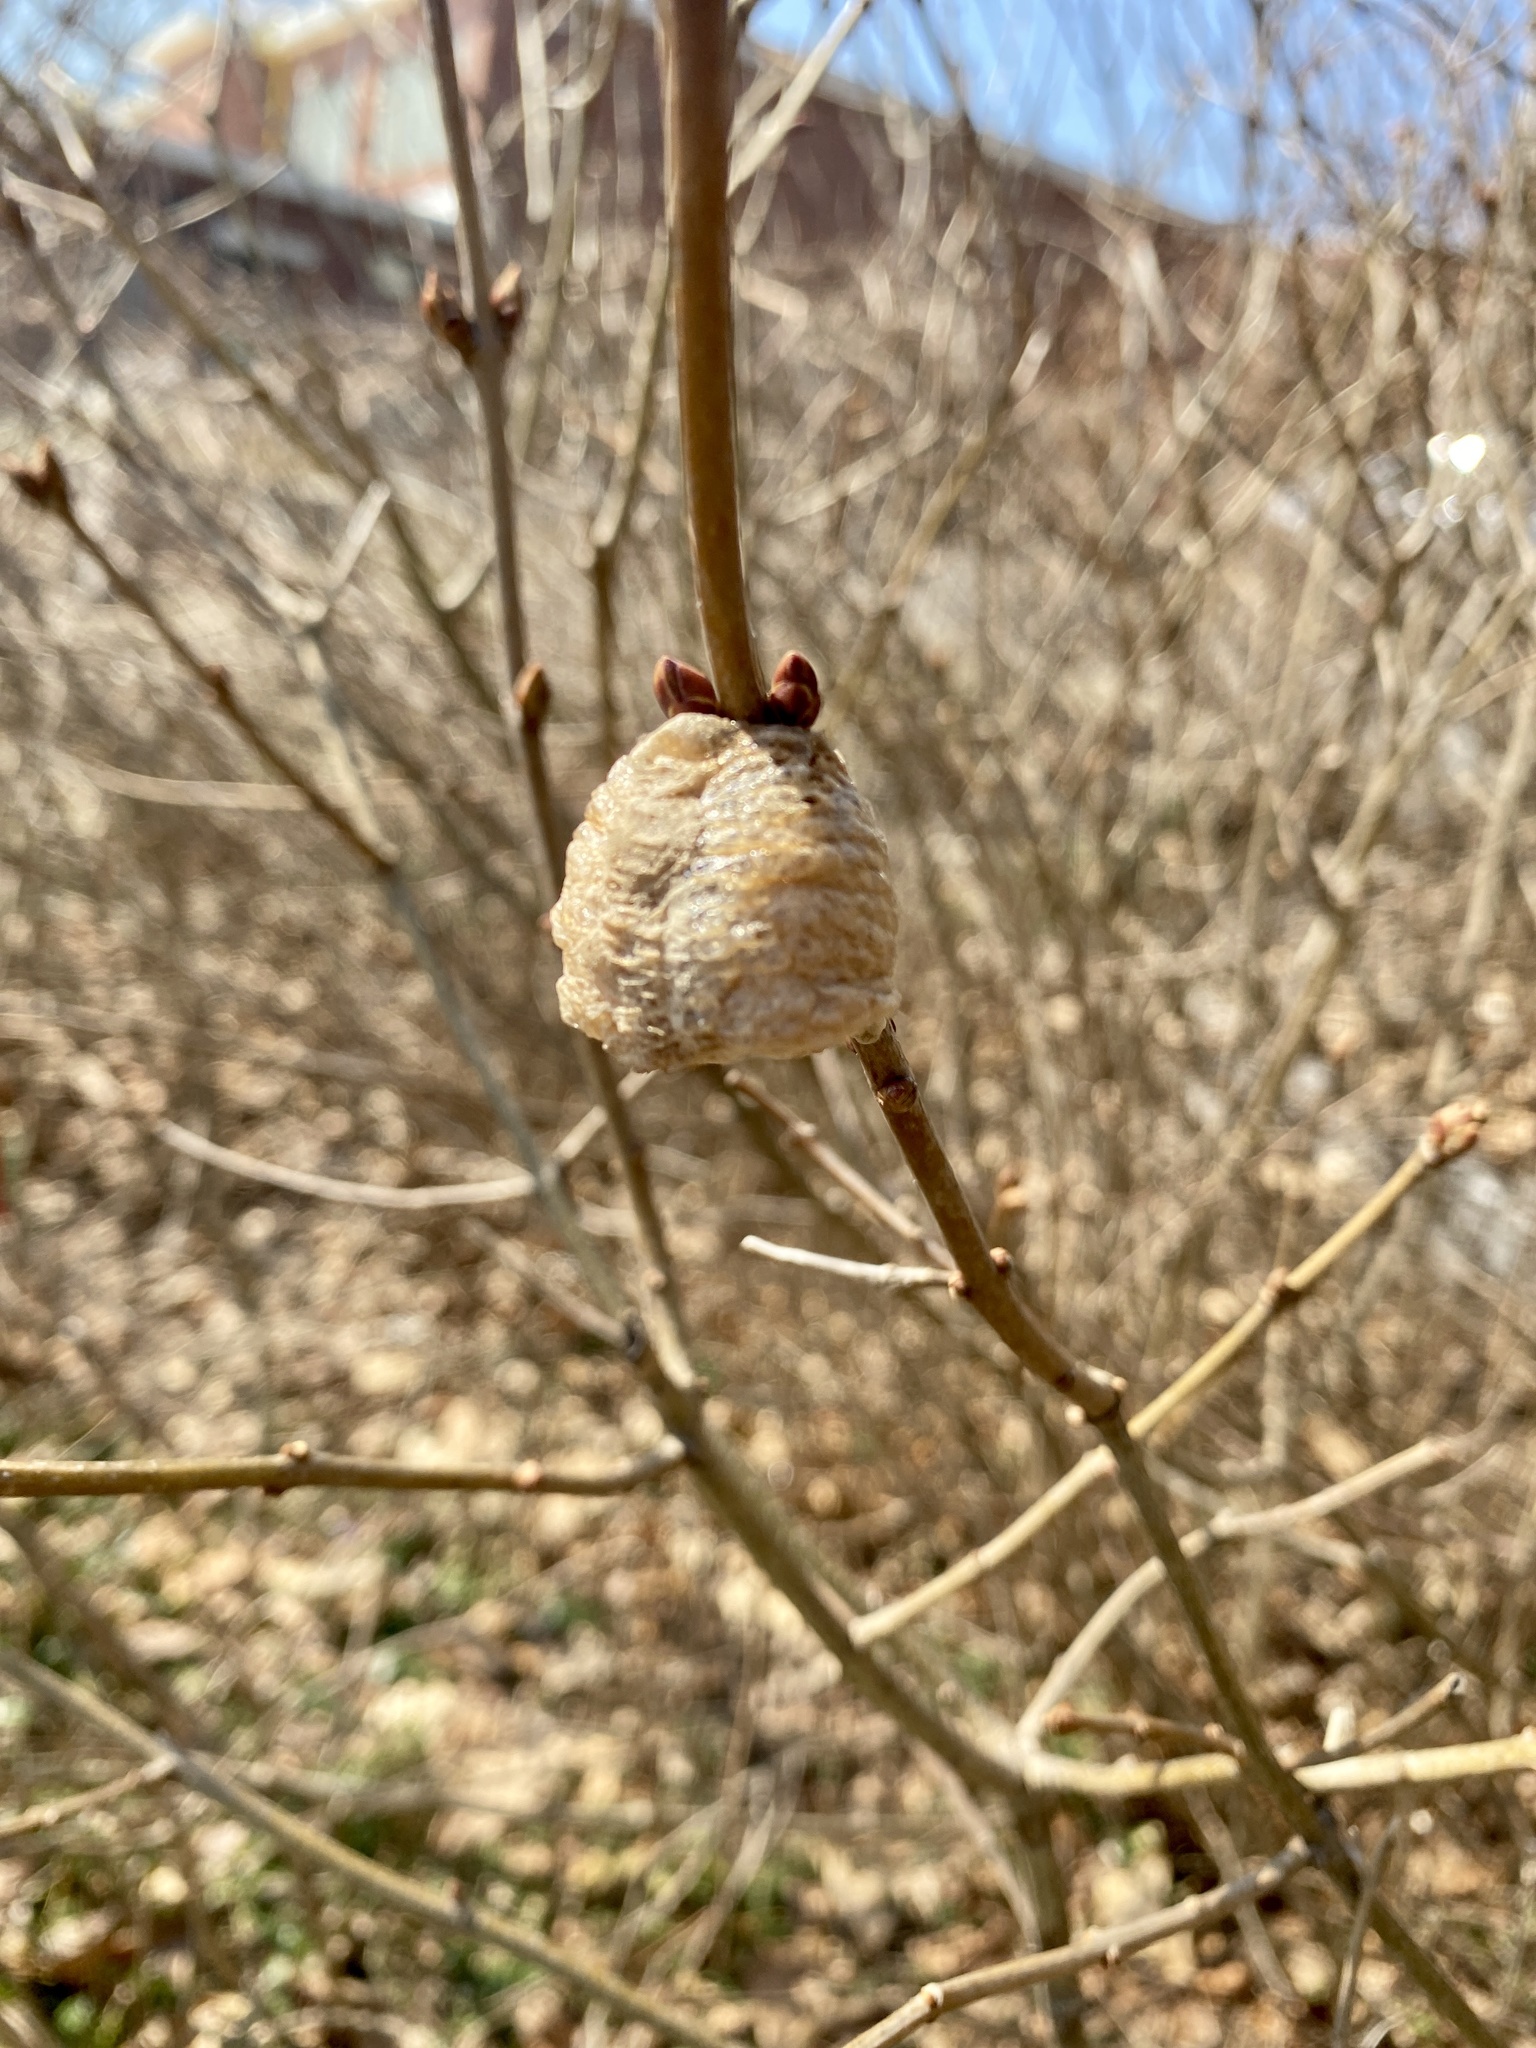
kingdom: Animalia
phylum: Arthropoda
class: Insecta
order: Mantodea
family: Mantidae
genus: Tenodera
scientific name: Tenodera sinensis
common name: Chinese mantis
